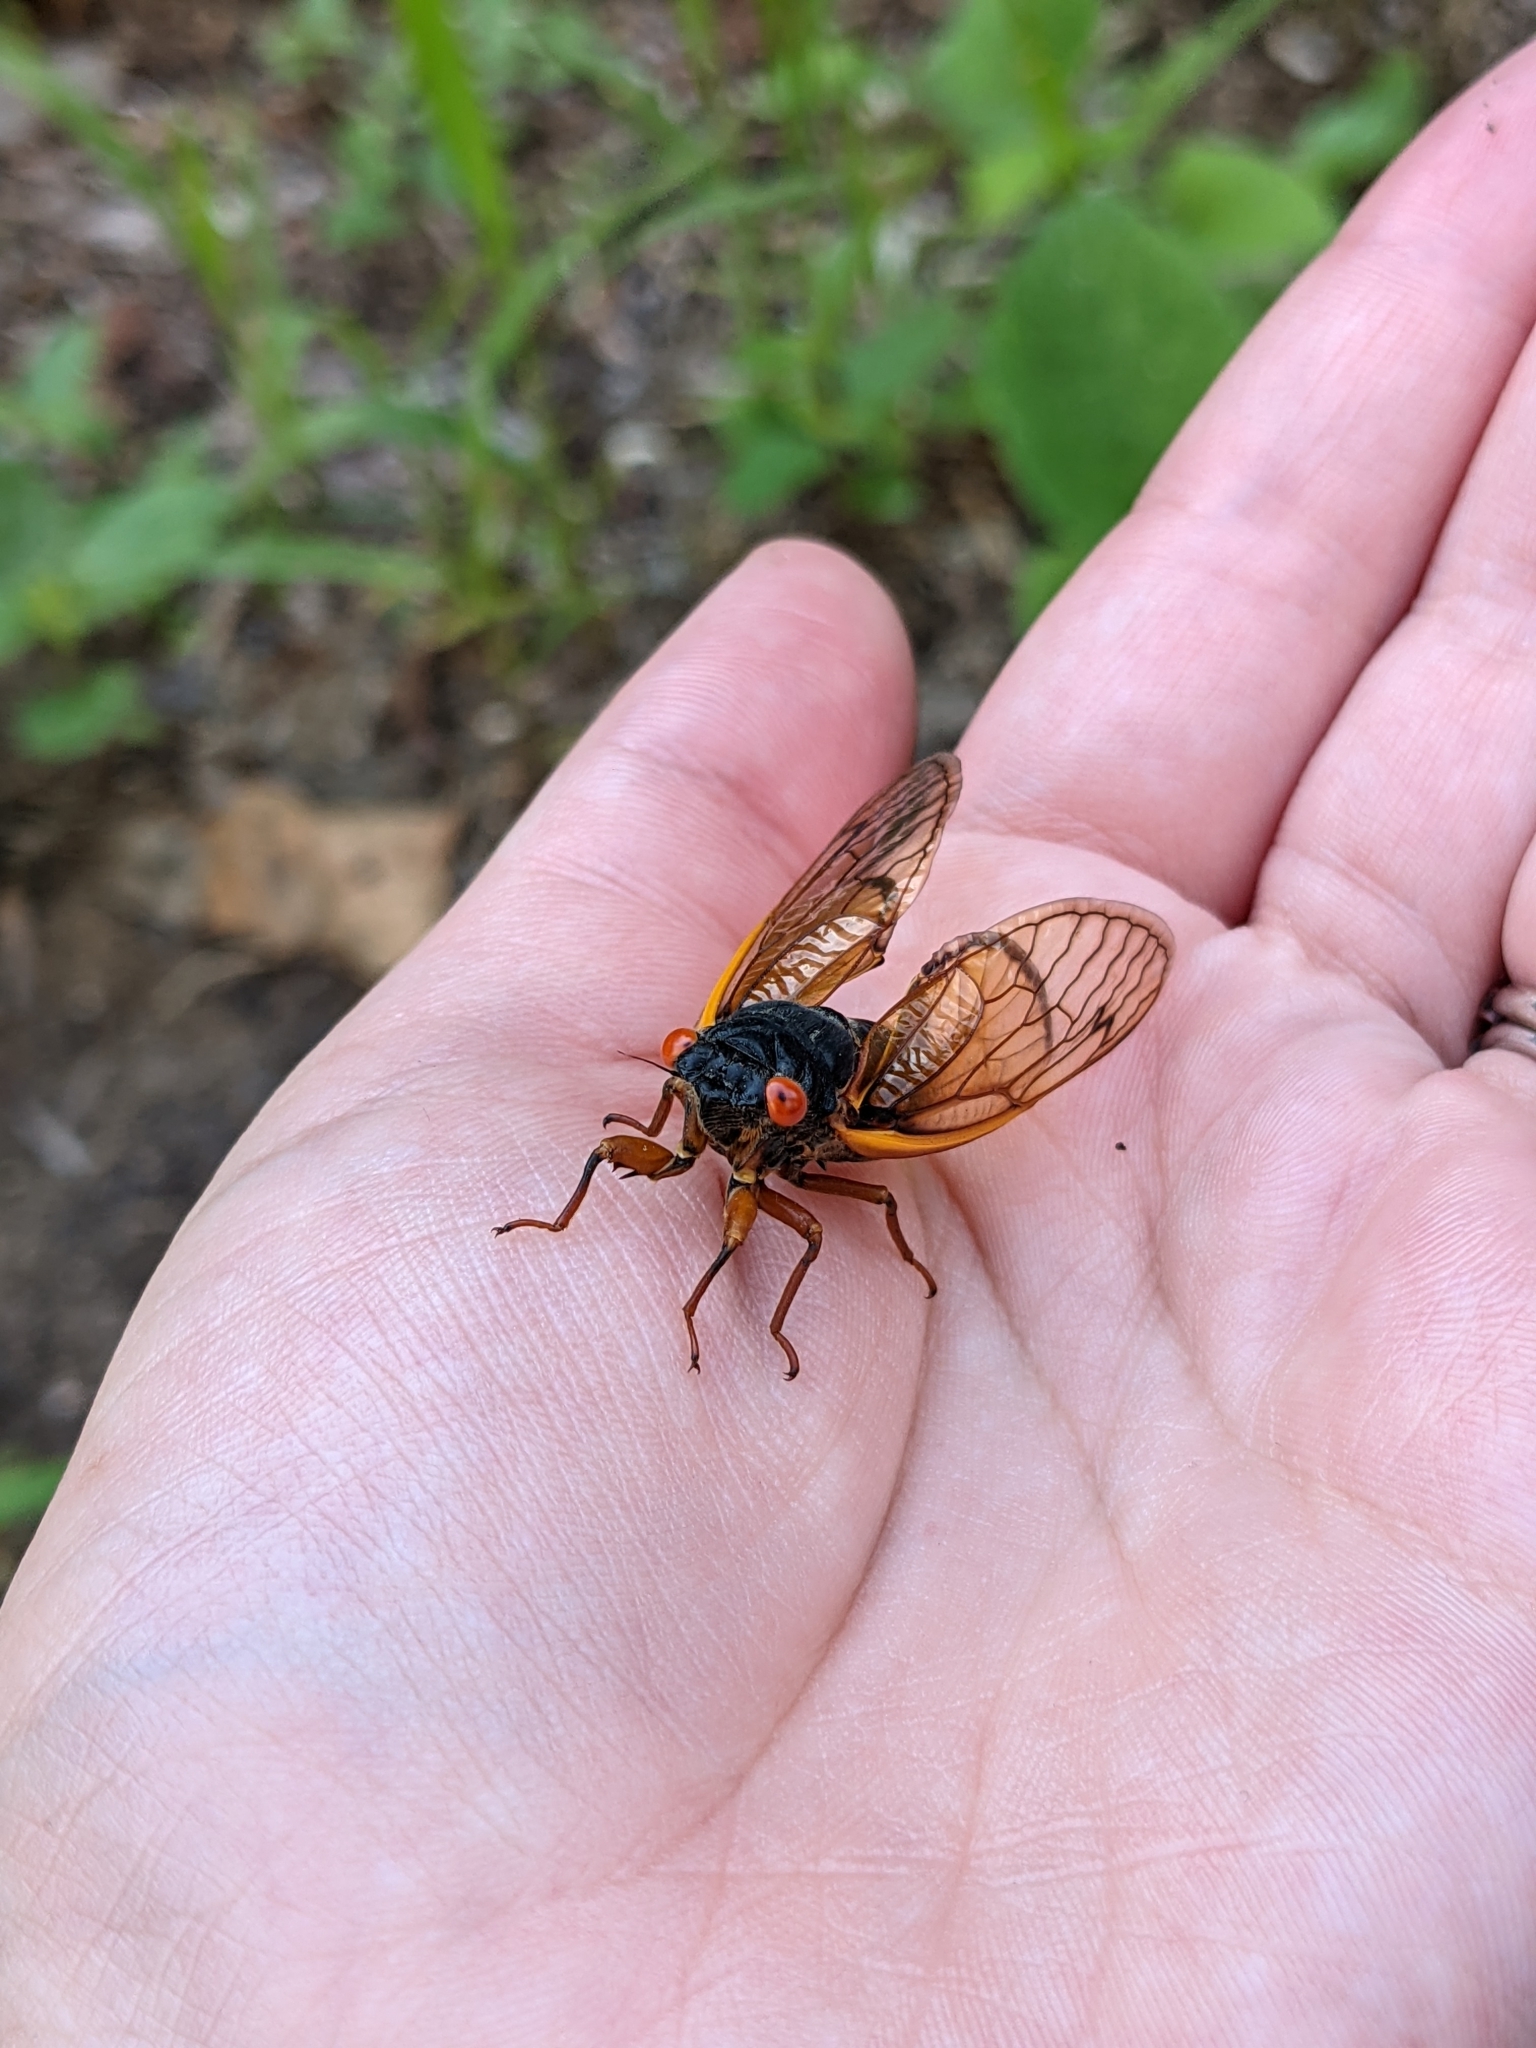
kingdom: Animalia
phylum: Arthropoda
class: Insecta
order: Hemiptera
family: Cicadidae
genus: Magicicada
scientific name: Magicicada septendecula
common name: Decula periodical cicada
